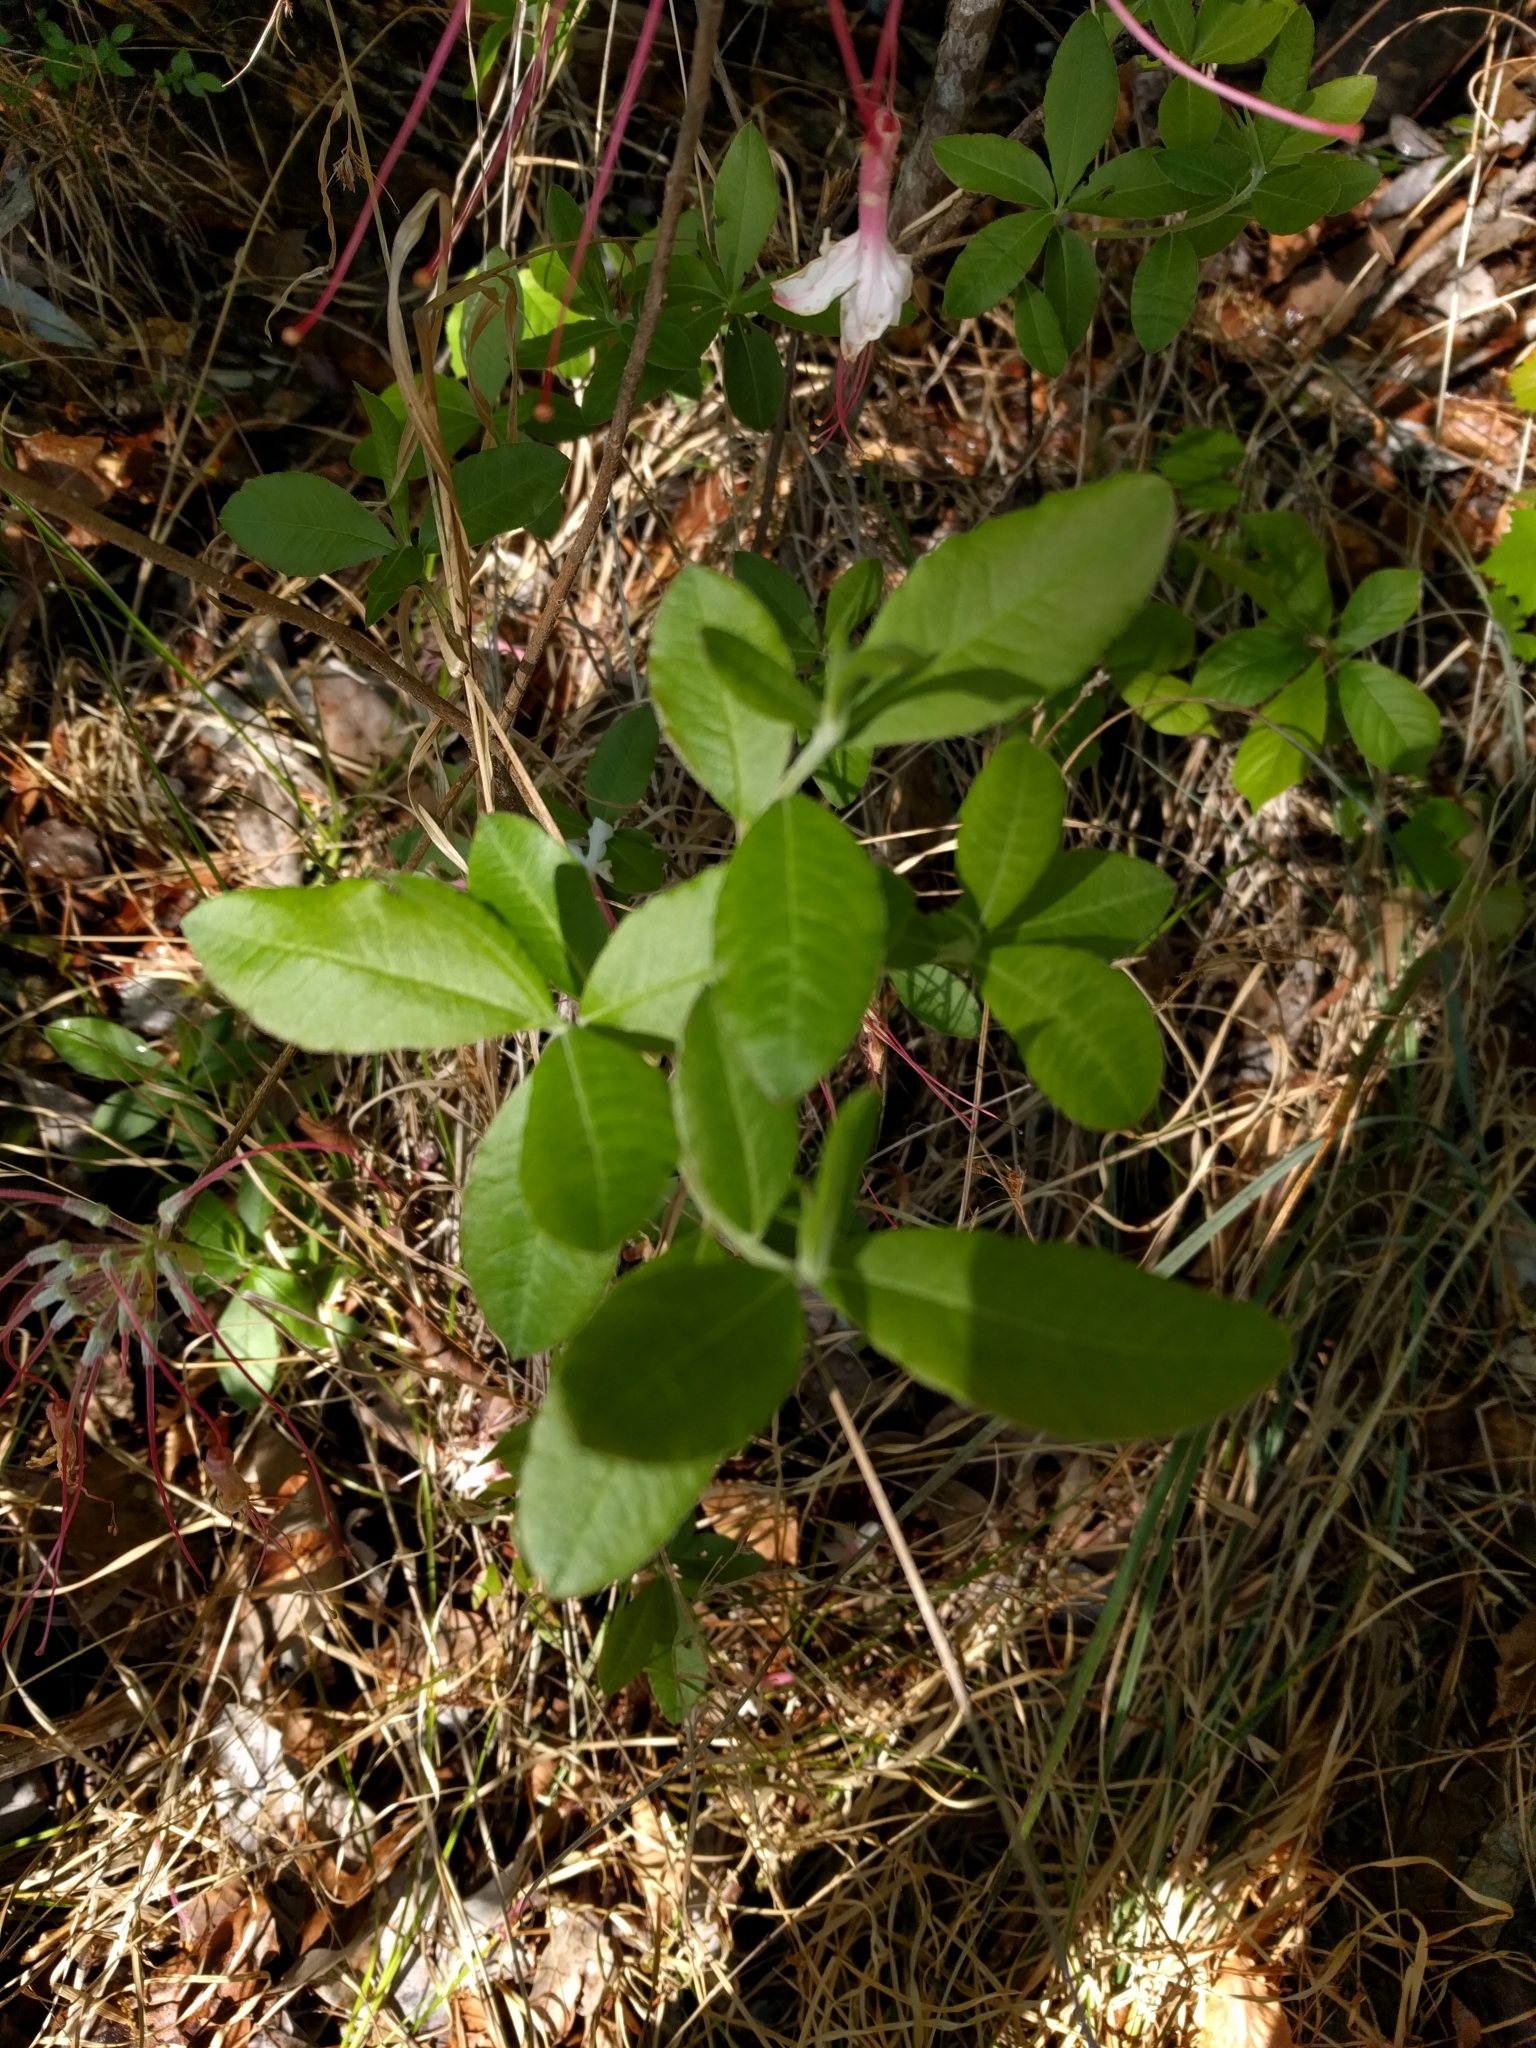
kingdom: Plantae
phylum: Tracheophyta
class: Magnoliopsida
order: Ericales
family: Ericaceae
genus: Rhododendron
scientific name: Rhododendron canescens
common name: Mountain azalea
